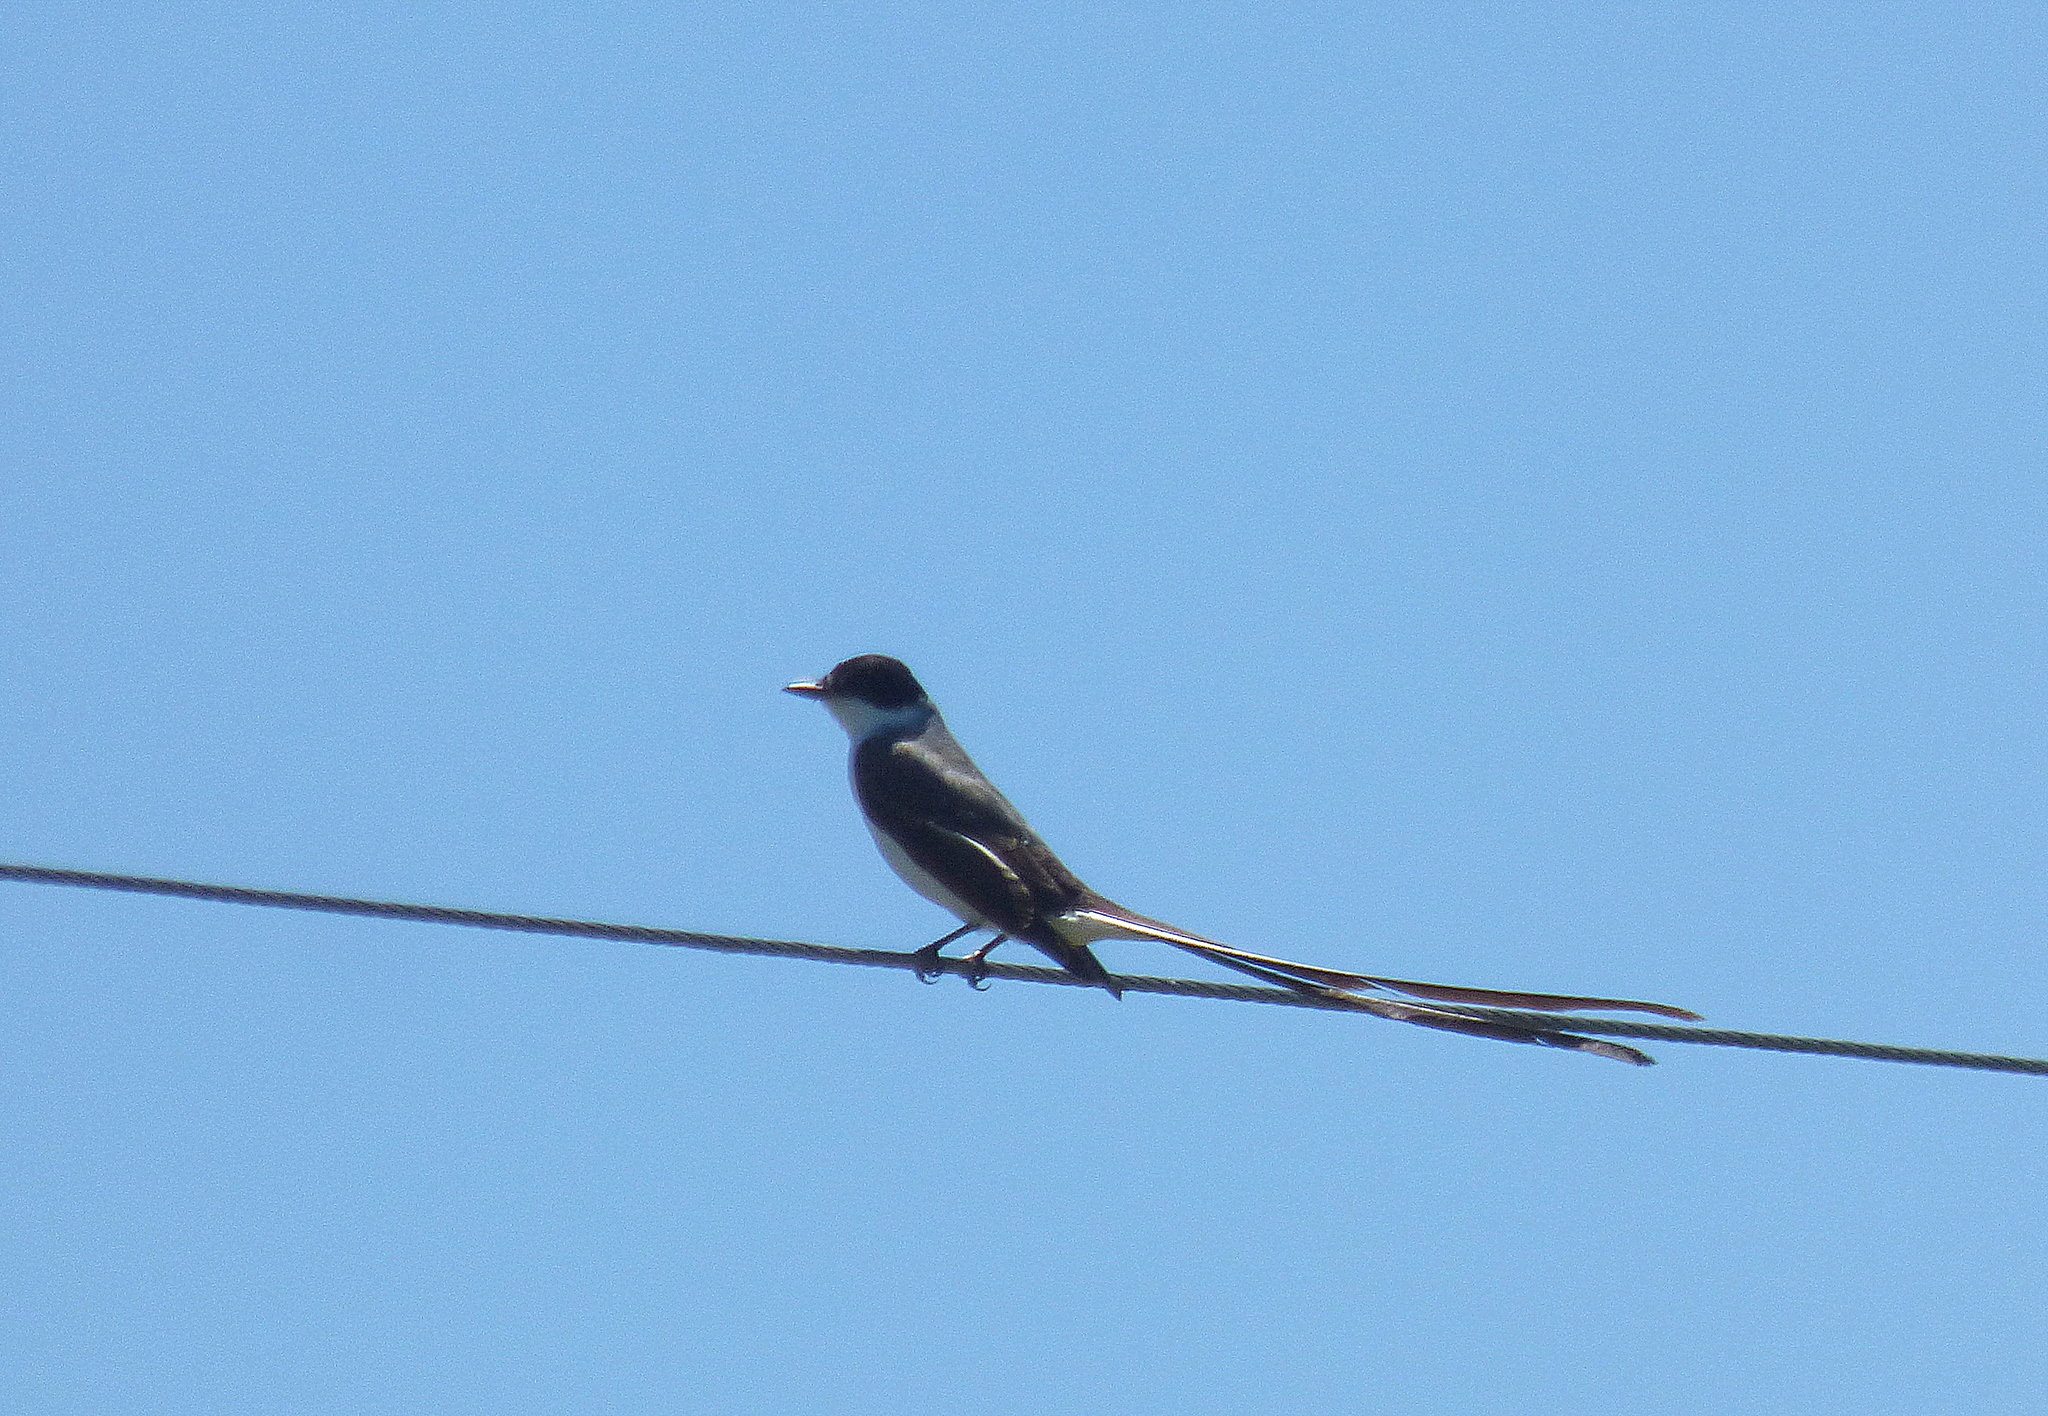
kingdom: Animalia
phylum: Chordata
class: Aves
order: Passeriformes
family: Tyrannidae
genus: Tyrannus
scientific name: Tyrannus savana
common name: Fork-tailed flycatcher
